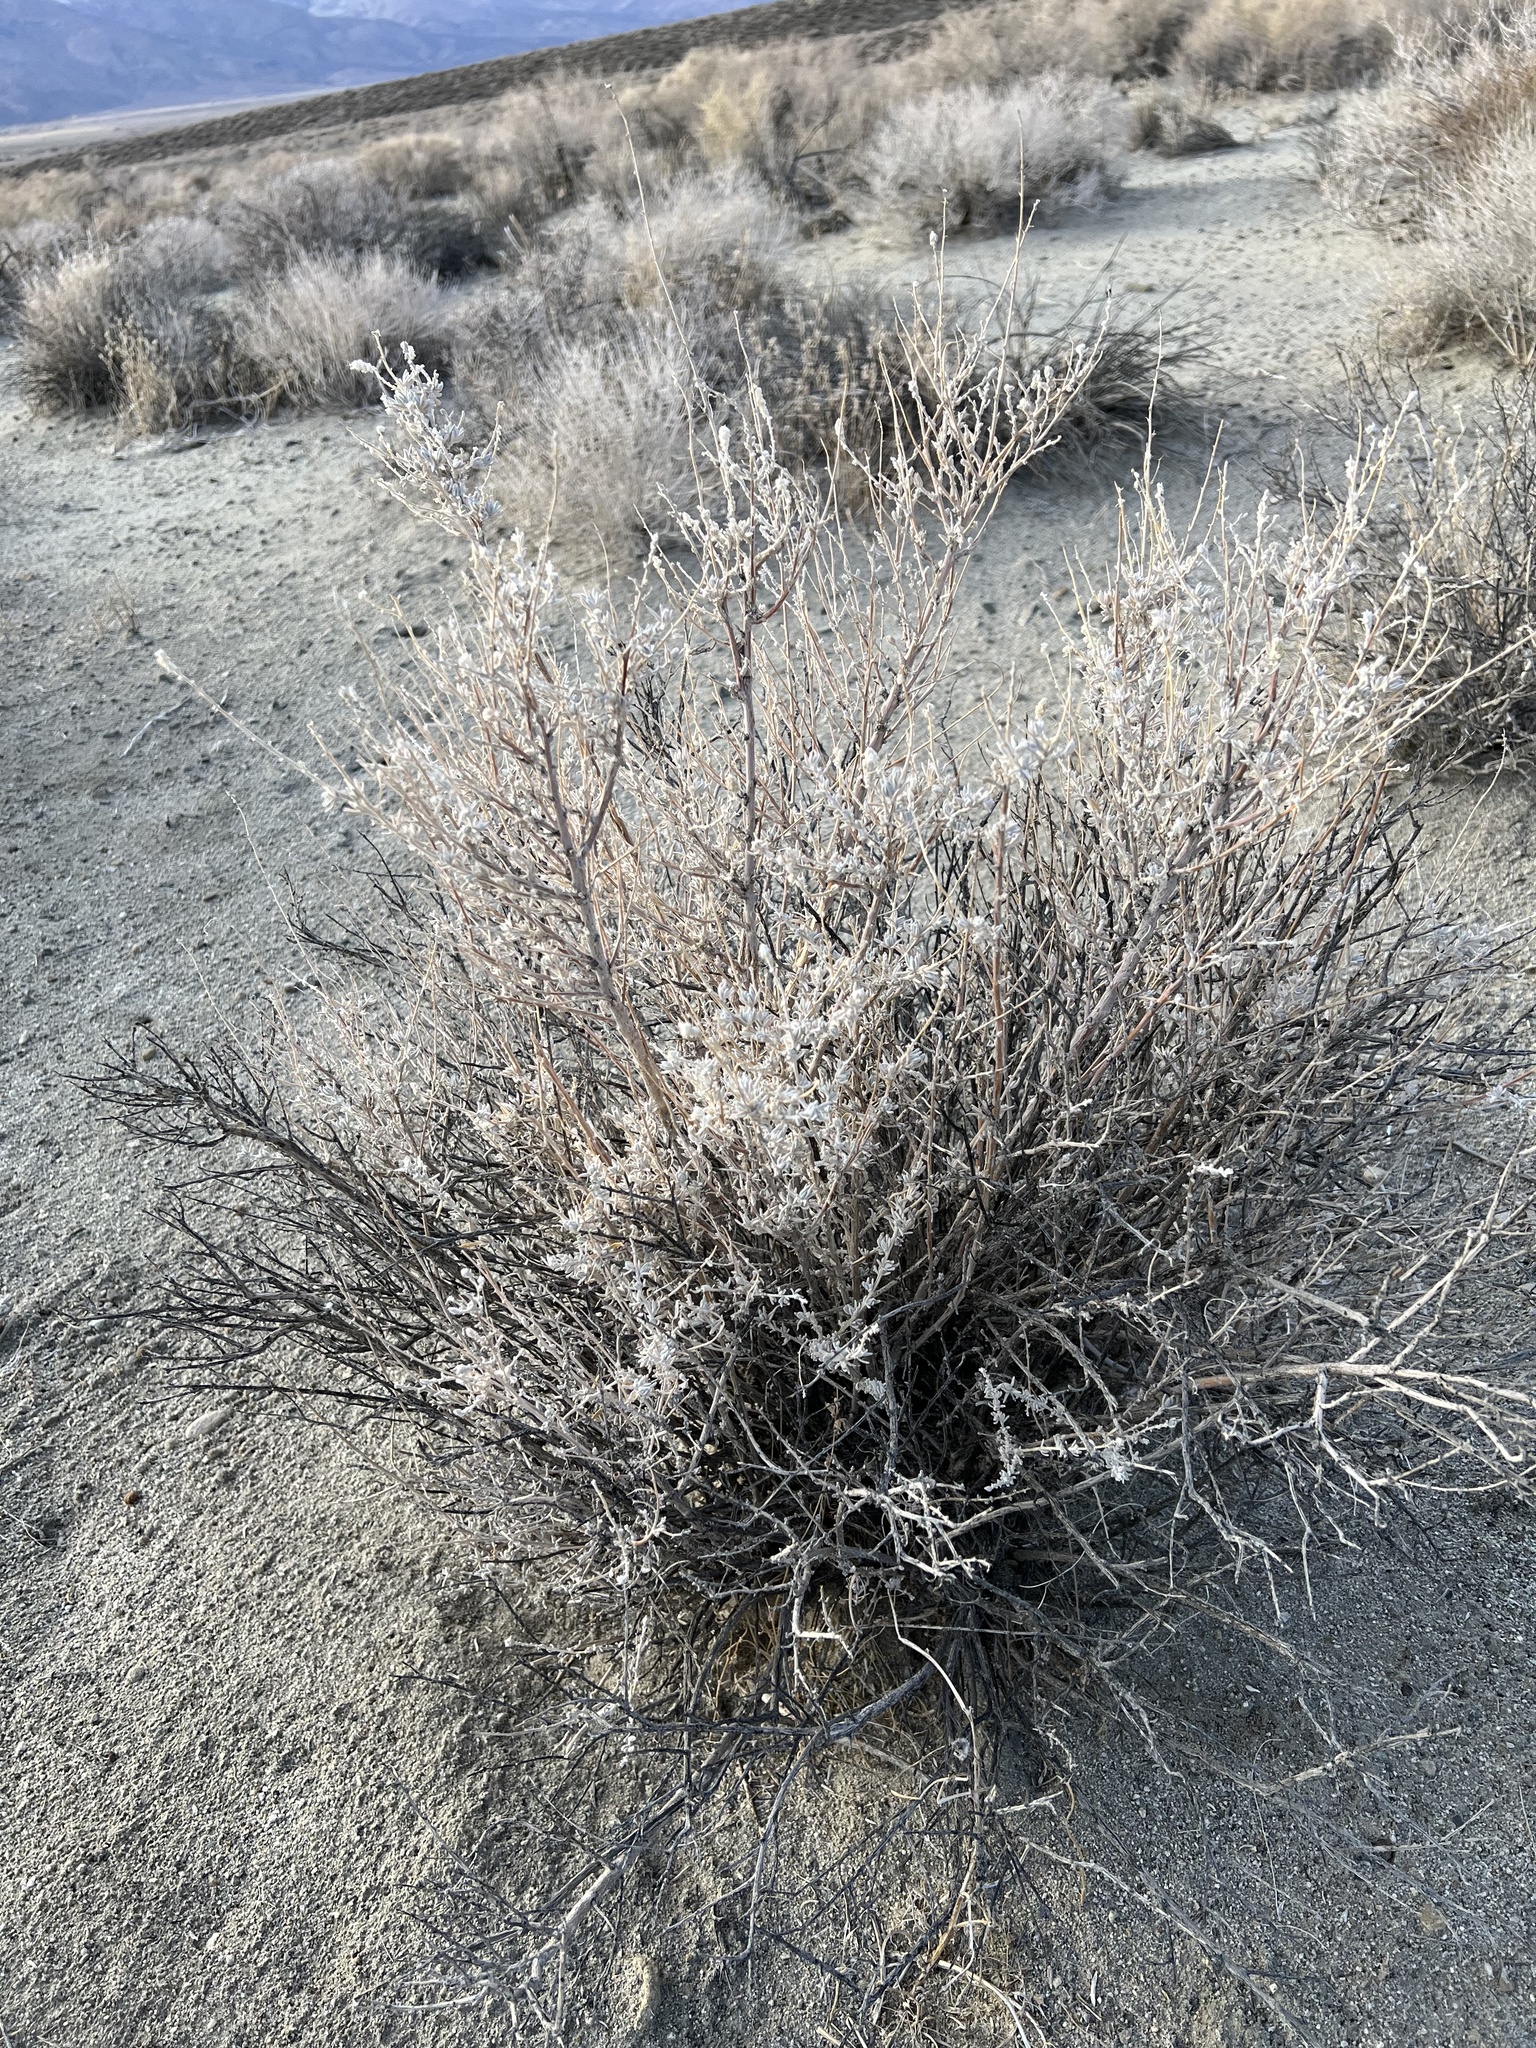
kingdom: Plantae
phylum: Tracheophyta
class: Magnoliopsida
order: Caryophyllales
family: Amaranthaceae
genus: Krascheninnikovia
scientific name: Krascheninnikovia lanata
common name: Winterfat
